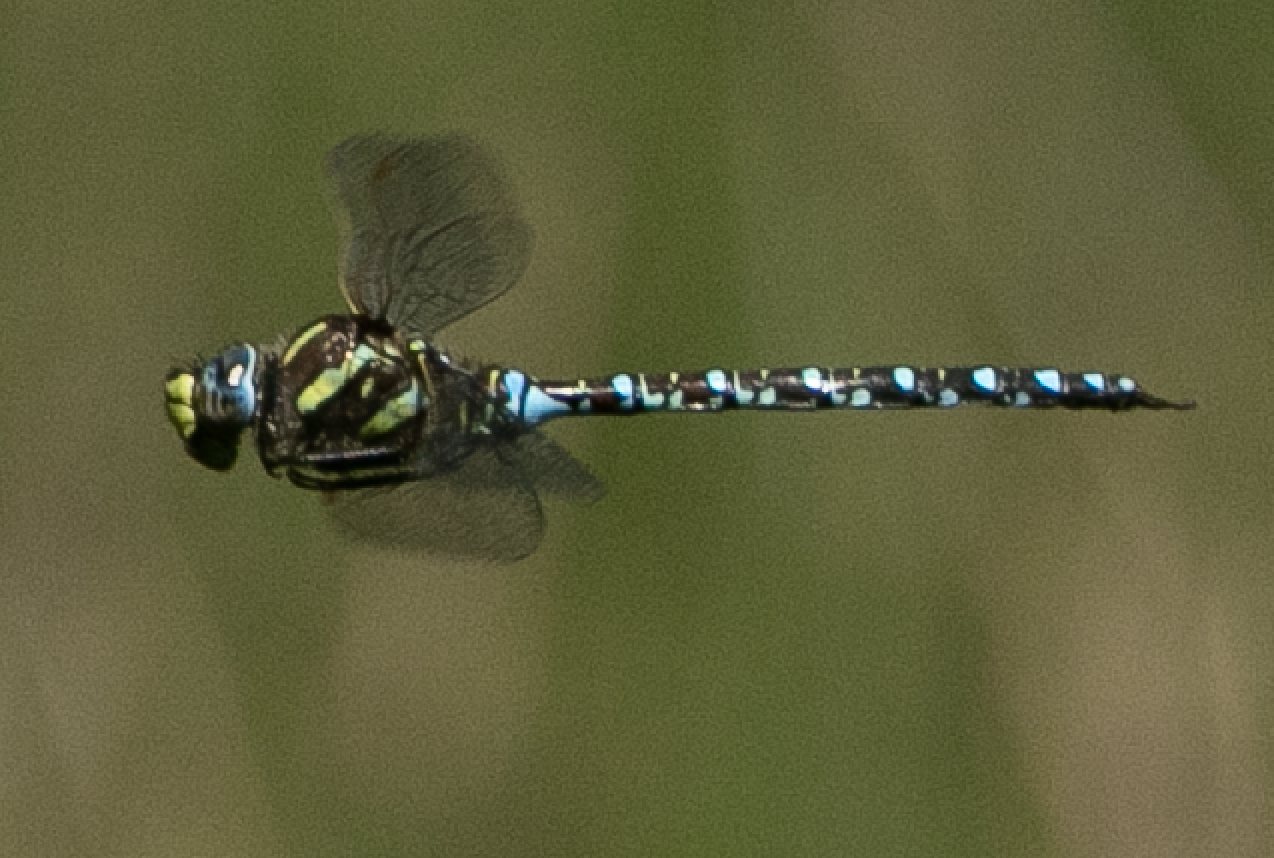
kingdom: Animalia
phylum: Arthropoda
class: Insecta
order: Odonata
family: Aeshnidae
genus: Aeshna
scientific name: Aeshna juncea
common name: Moorland hawker
